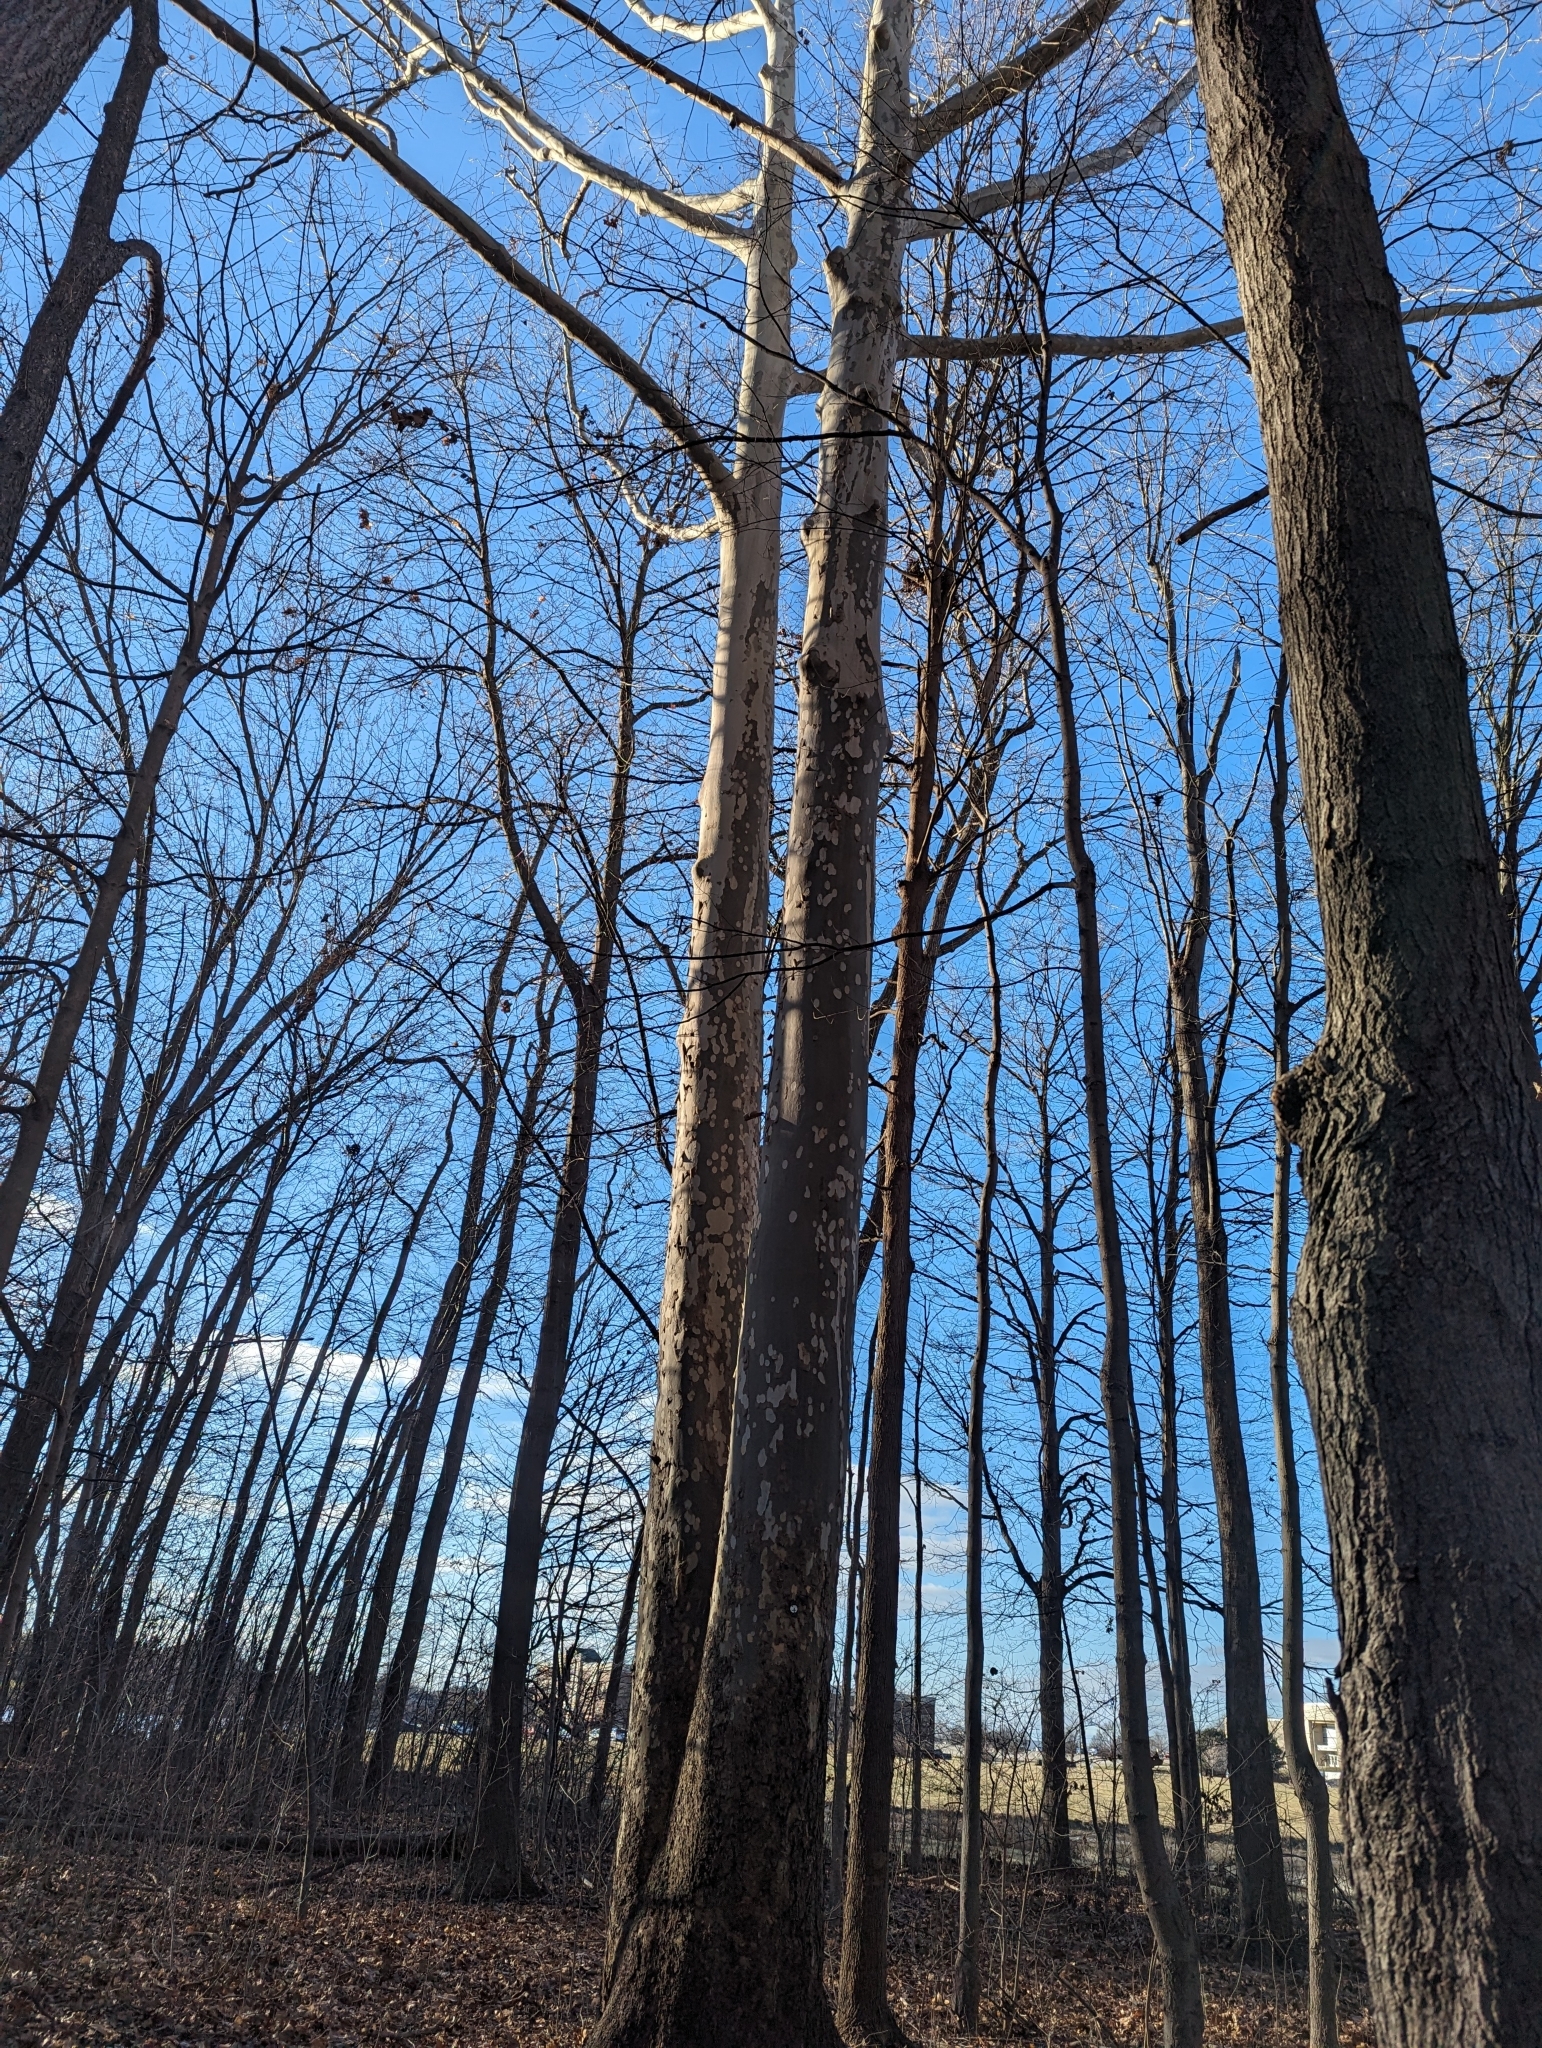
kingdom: Plantae
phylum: Tracheophyta
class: Magnoliopsida
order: Proteales
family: Platanaceae
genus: Platanus
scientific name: Platanus occidentalis
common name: American sycamore
